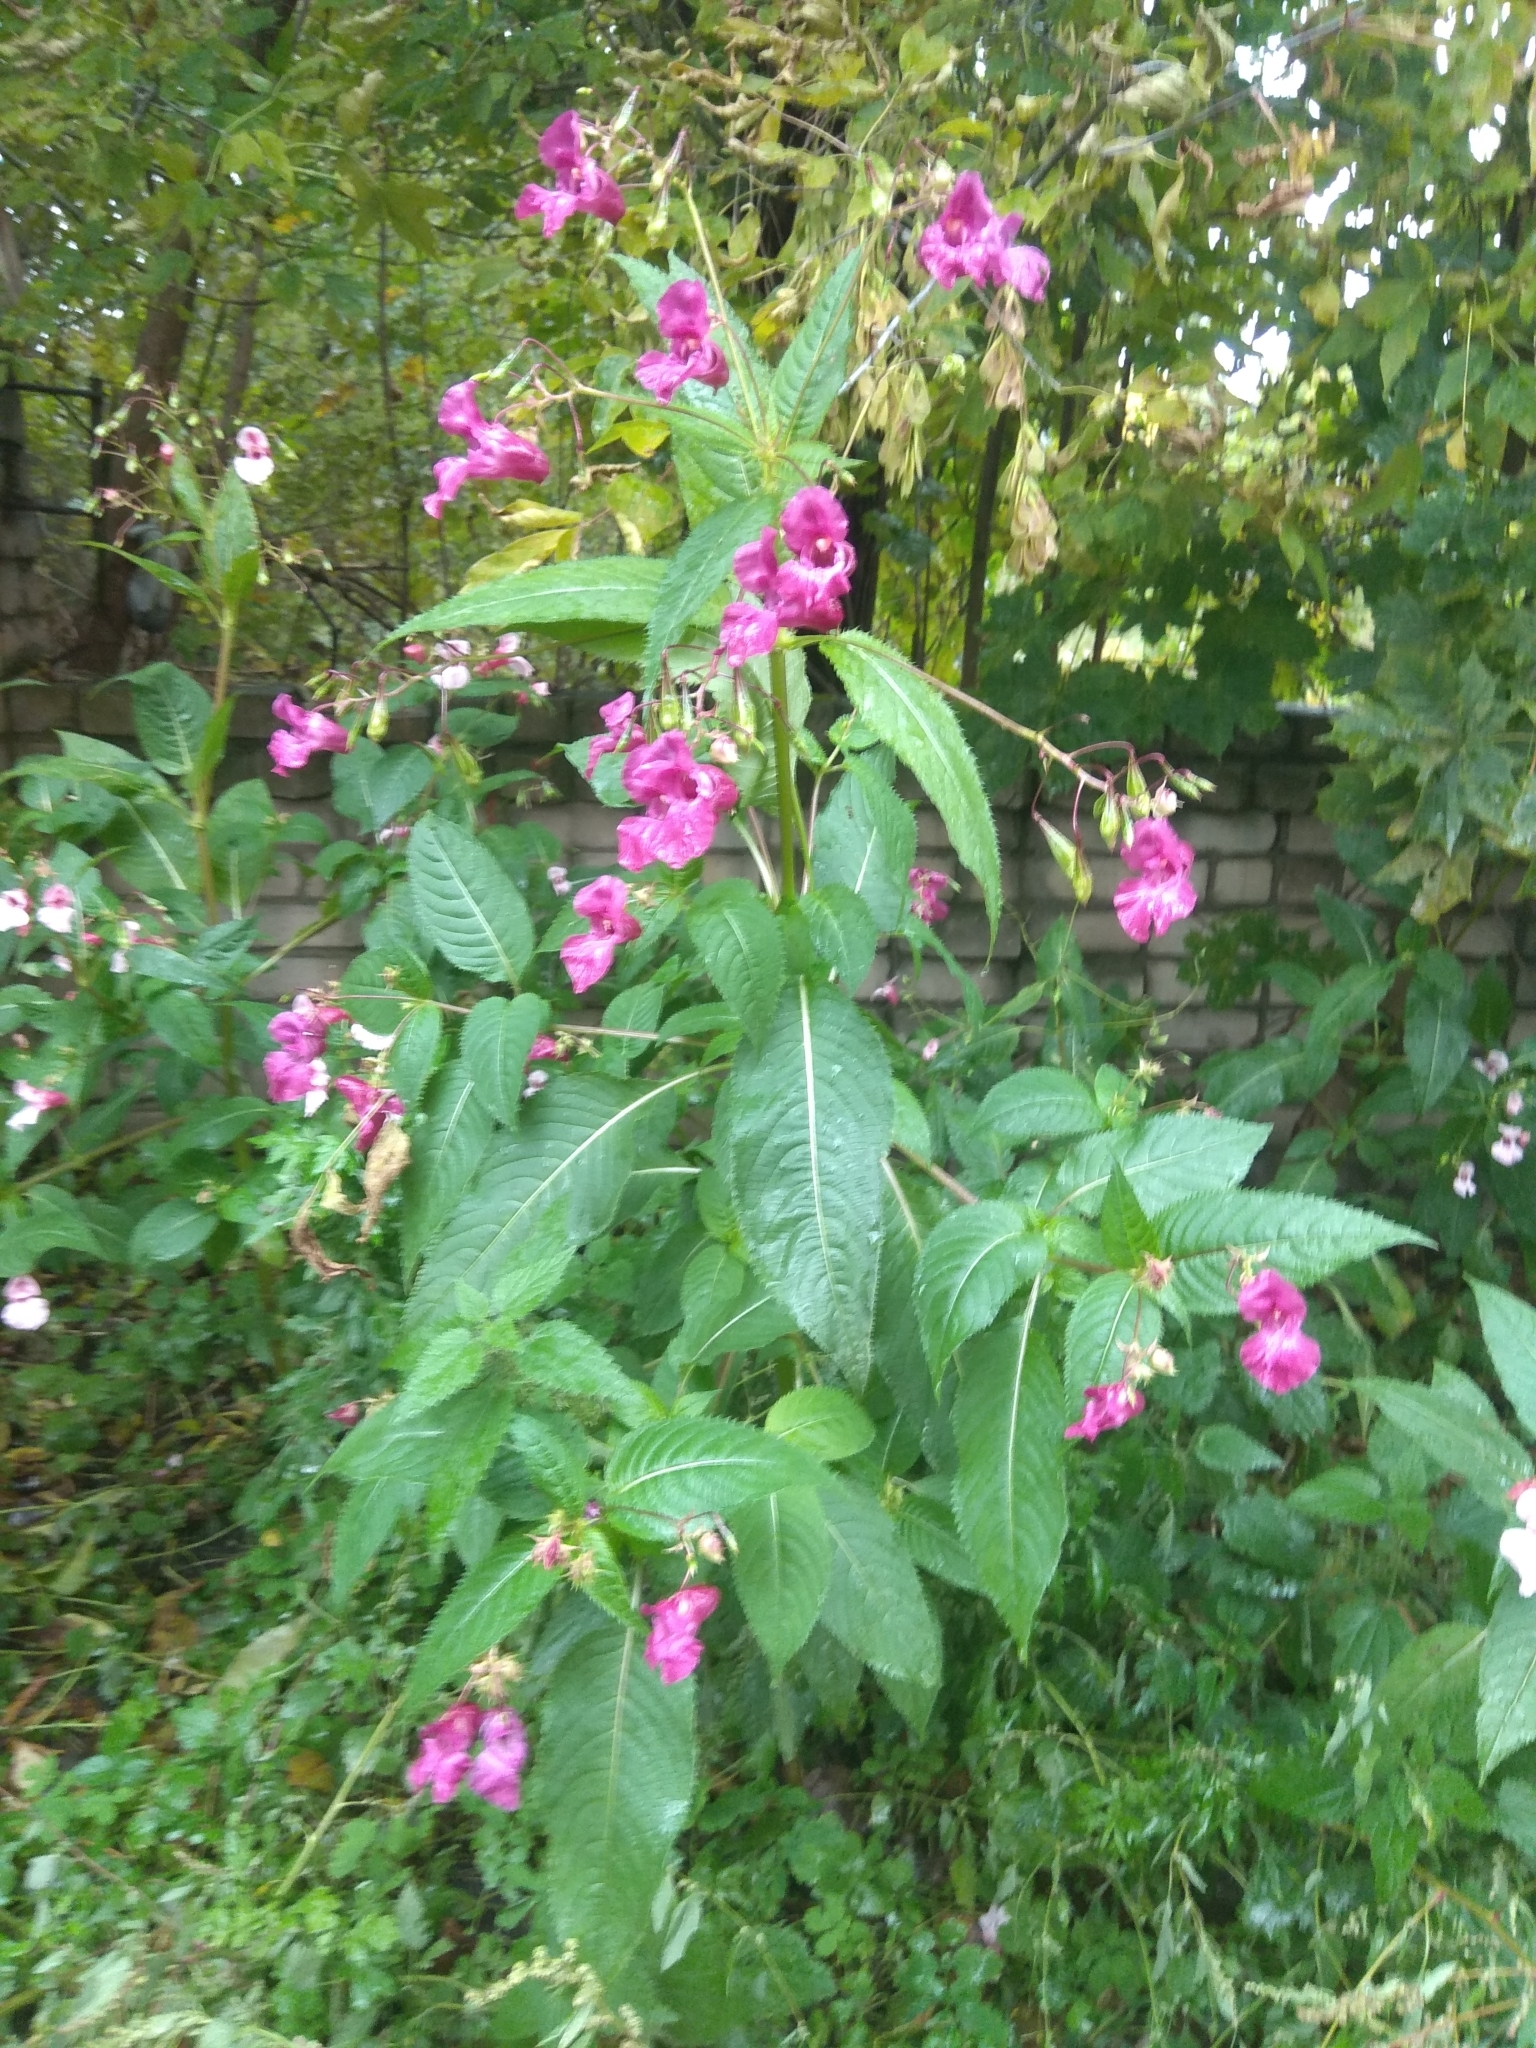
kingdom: Plantae
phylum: Tracheophyta
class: Magnoliopsida
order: Ericales
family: Balsaminaceae
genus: Impatiens
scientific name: Impatiens glandulifera
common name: Himalayan balsam
